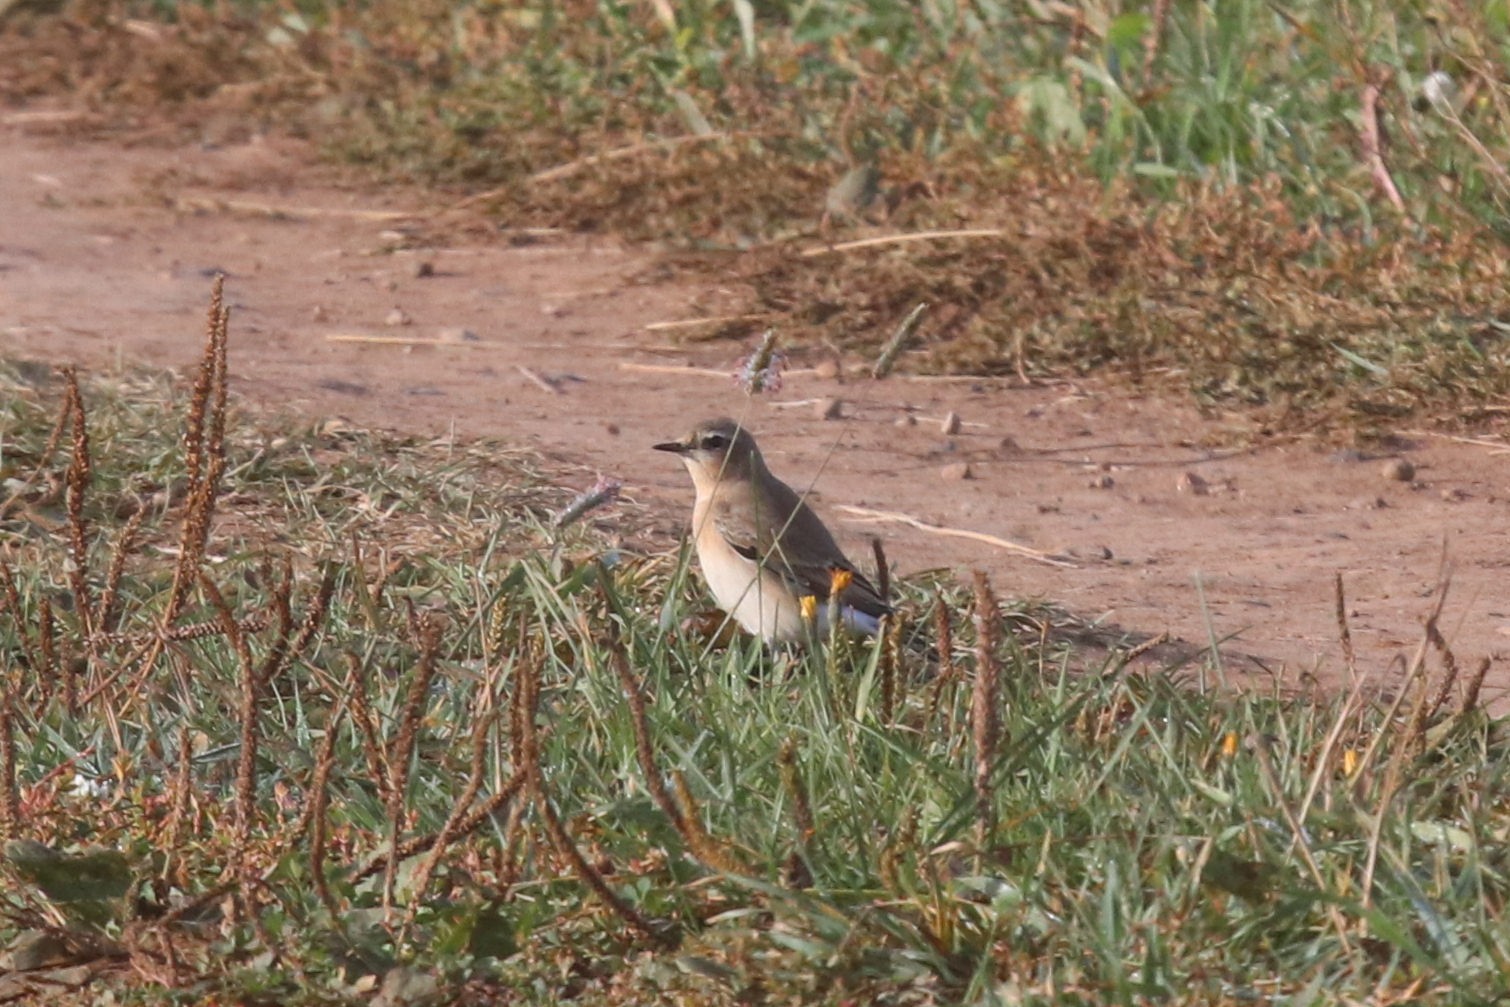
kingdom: Animalia
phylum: Chordata
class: Aves
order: Passeriformes
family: Muscicapidae
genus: Oenanthe
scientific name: Oenanthe oenanthe
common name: Northern wheatear
